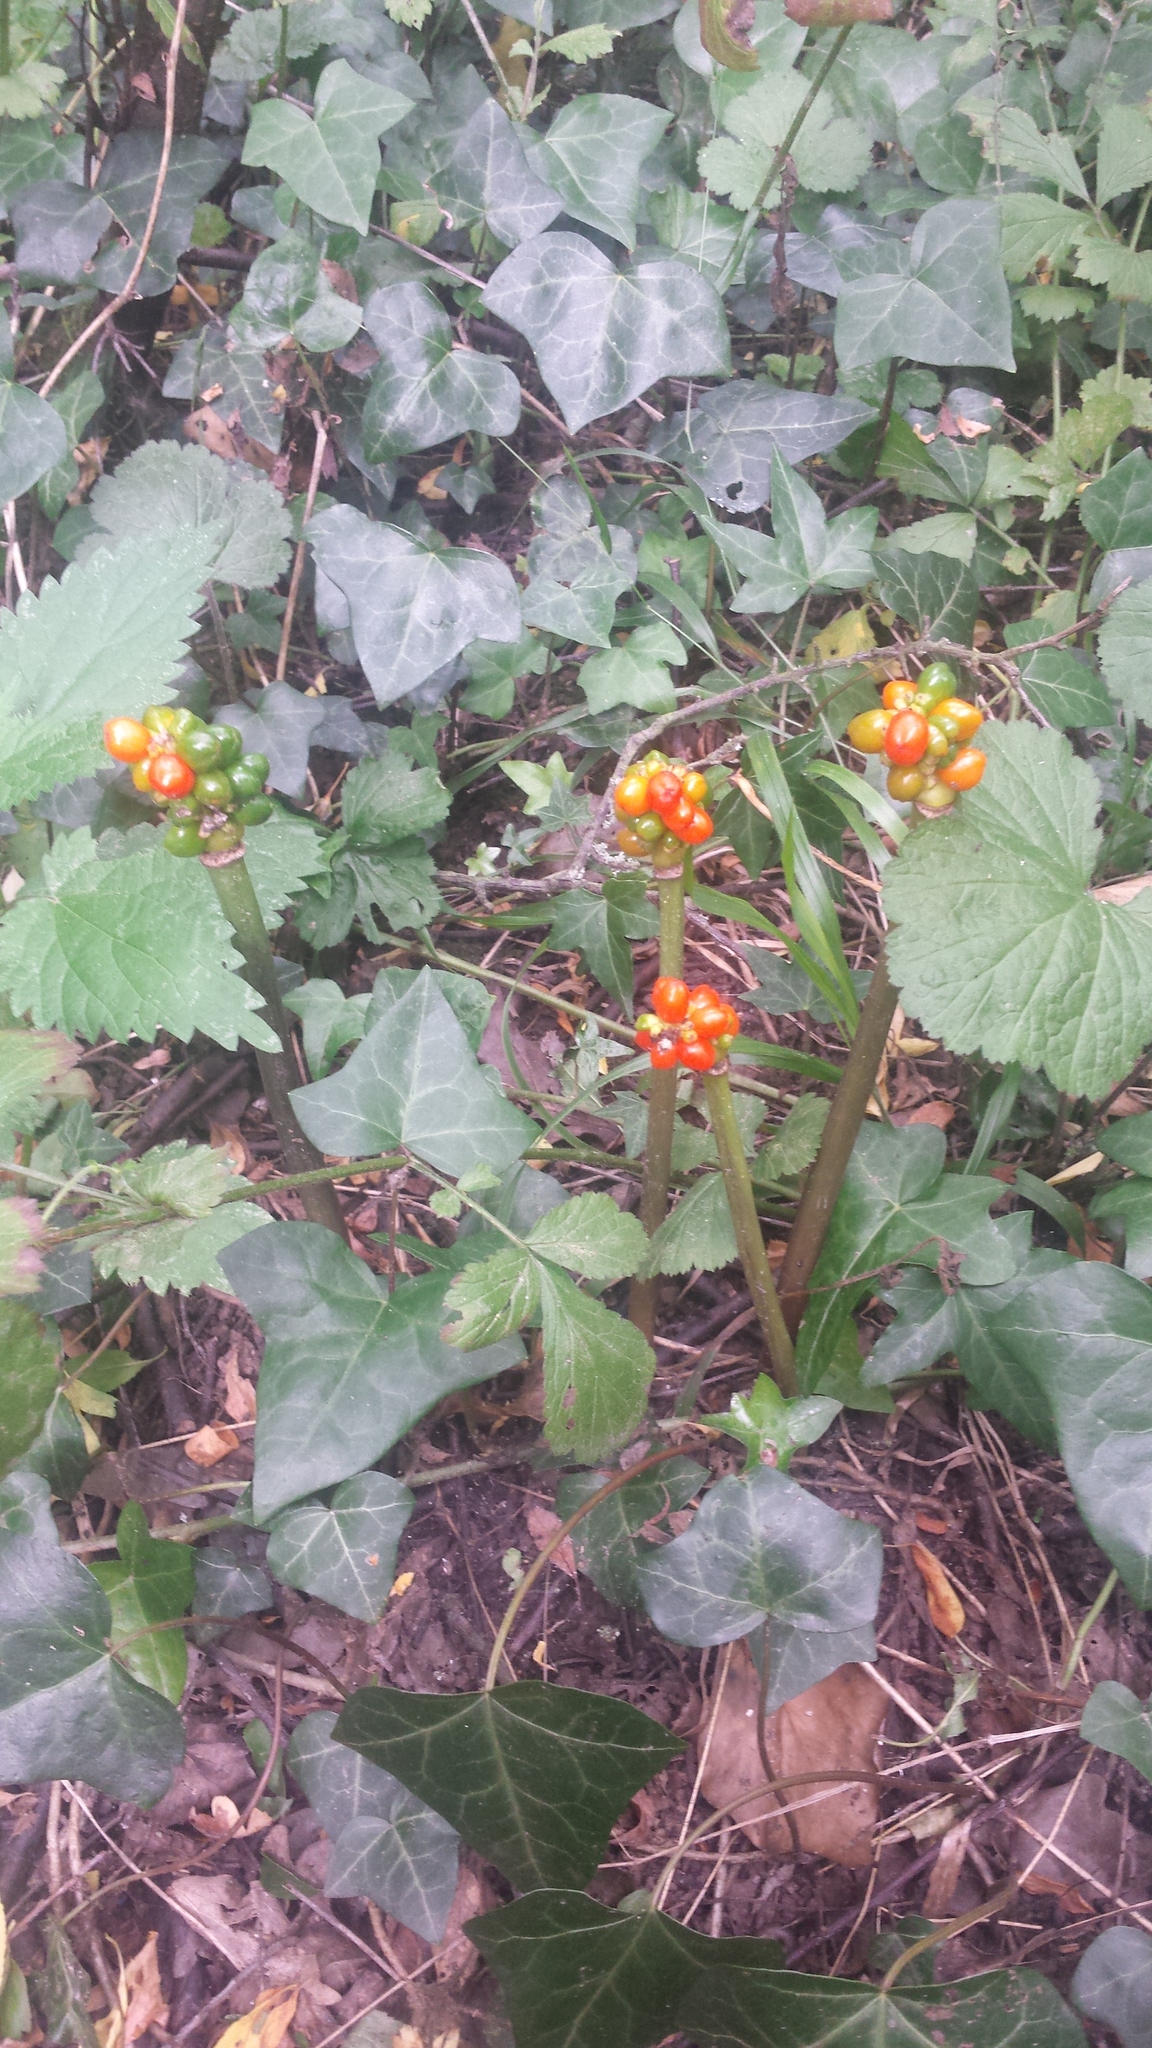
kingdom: Plantae
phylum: Tracheophyta
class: Liliopsida
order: Alismatales
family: Araceae
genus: Arum
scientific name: Arum maculatum
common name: Lords-and-ladies
